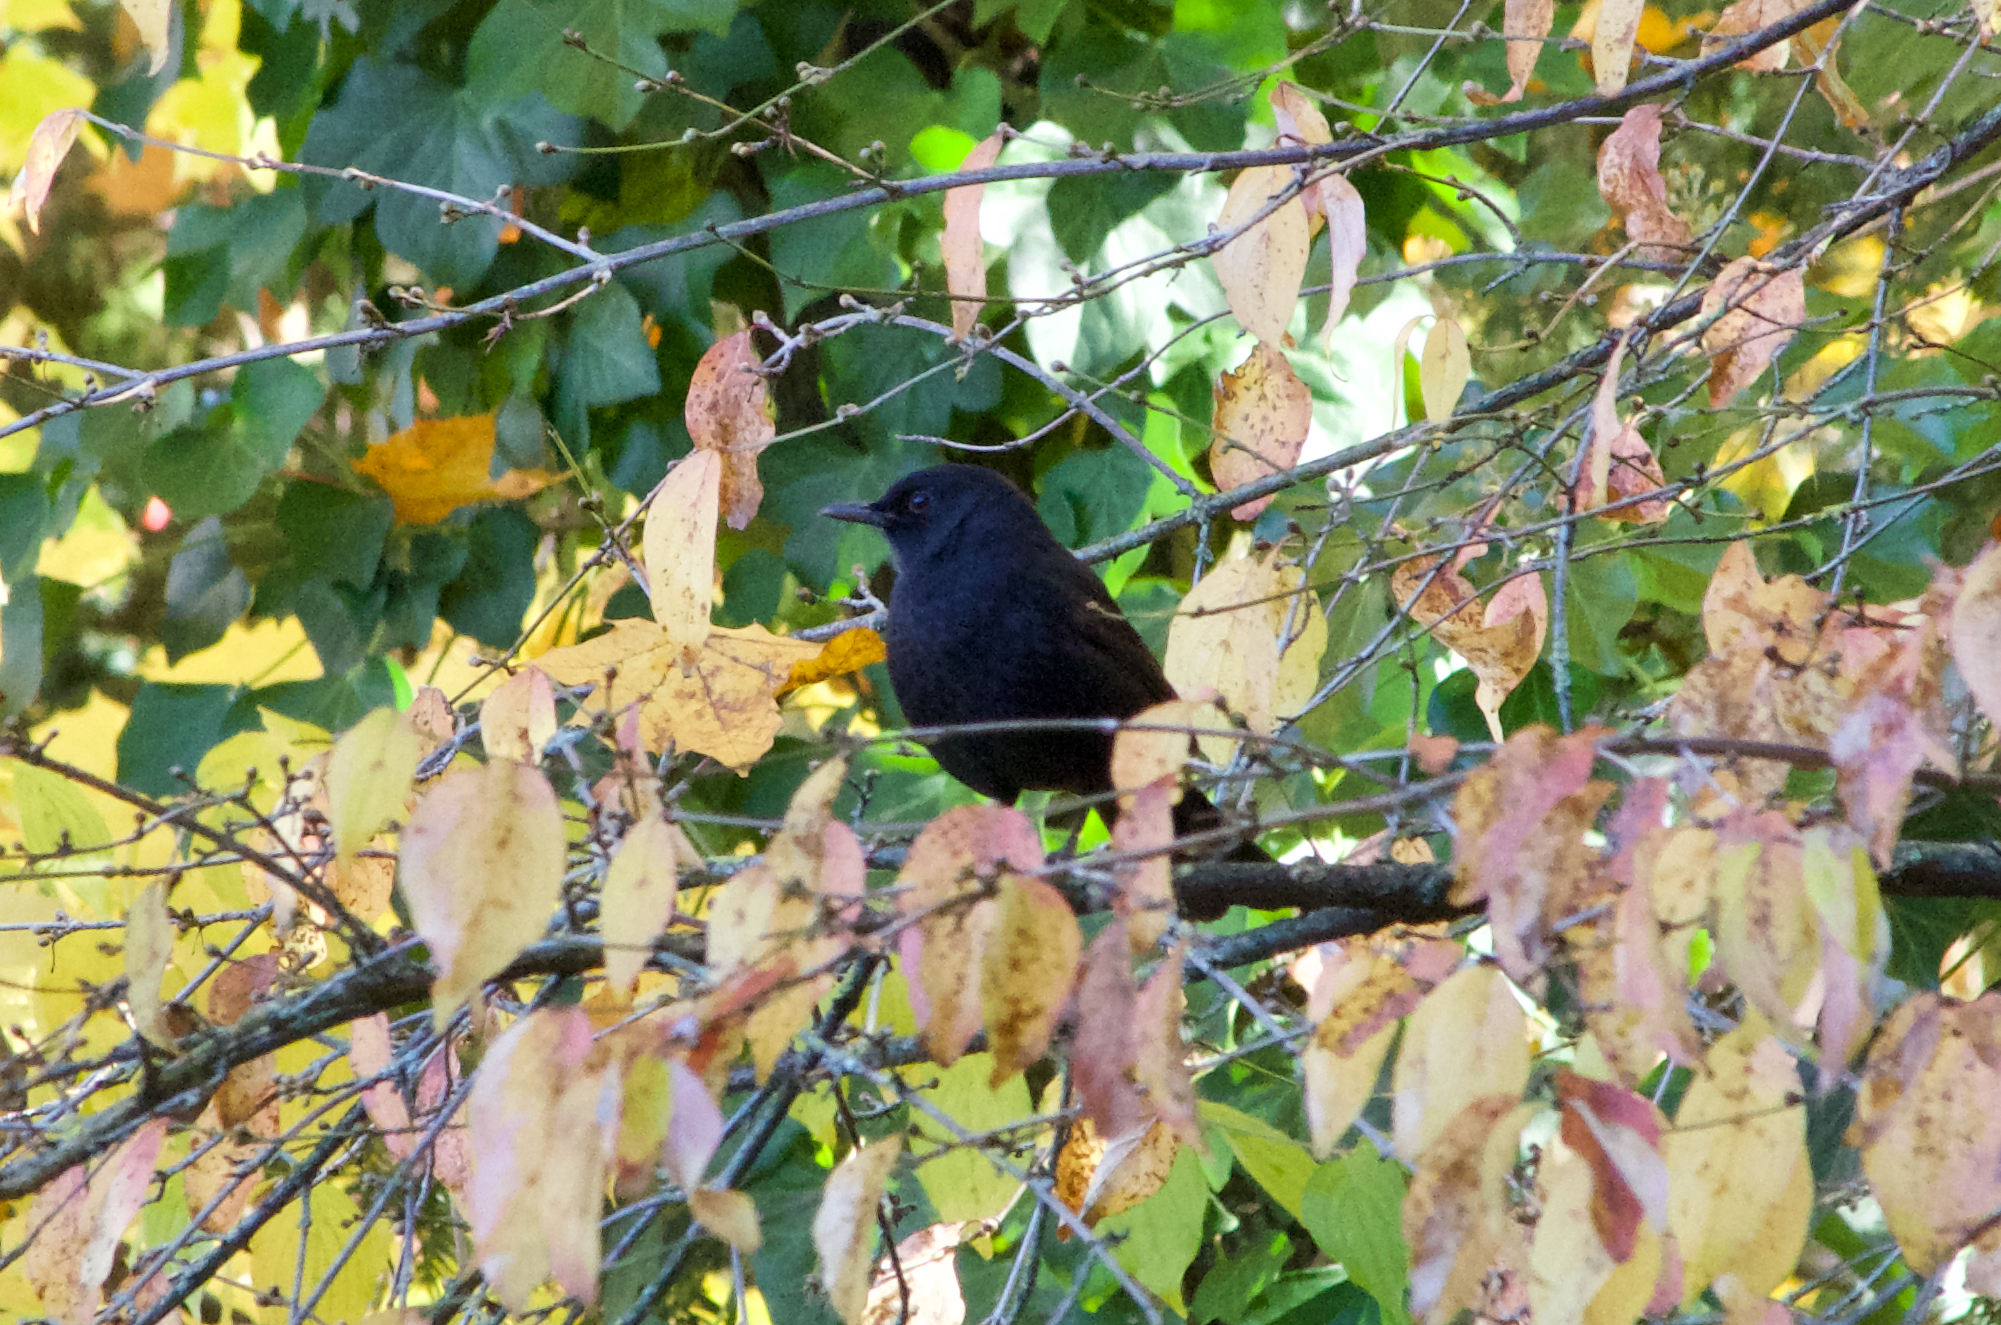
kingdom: Animalia
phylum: Chordata
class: Aves
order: Passeriformes
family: Turdidae
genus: Turdus
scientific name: Turdus merula
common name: Common blackbird
